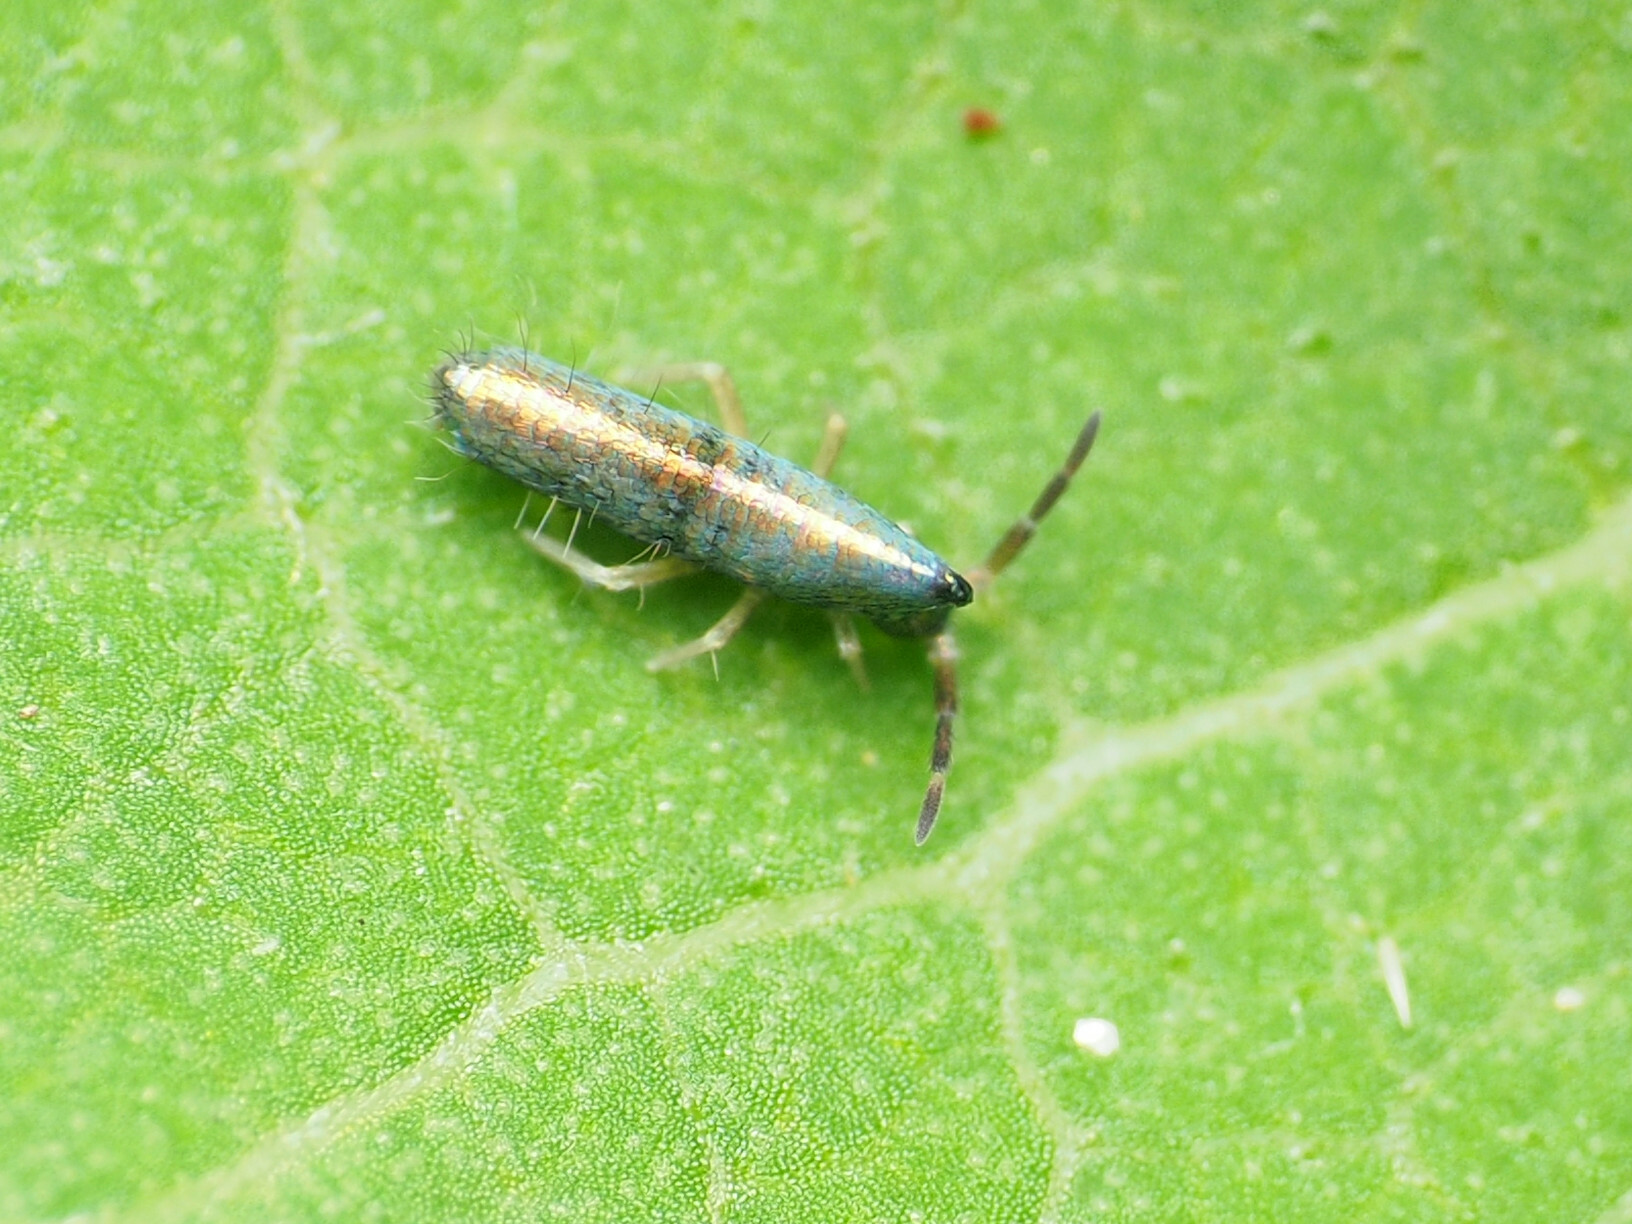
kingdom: Animalia
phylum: Arthropoda
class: Collembola
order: Entomobryomorpha
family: Entomobryidae
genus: Lepidocyrtus
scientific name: Lepidocyrtus paradoxus
